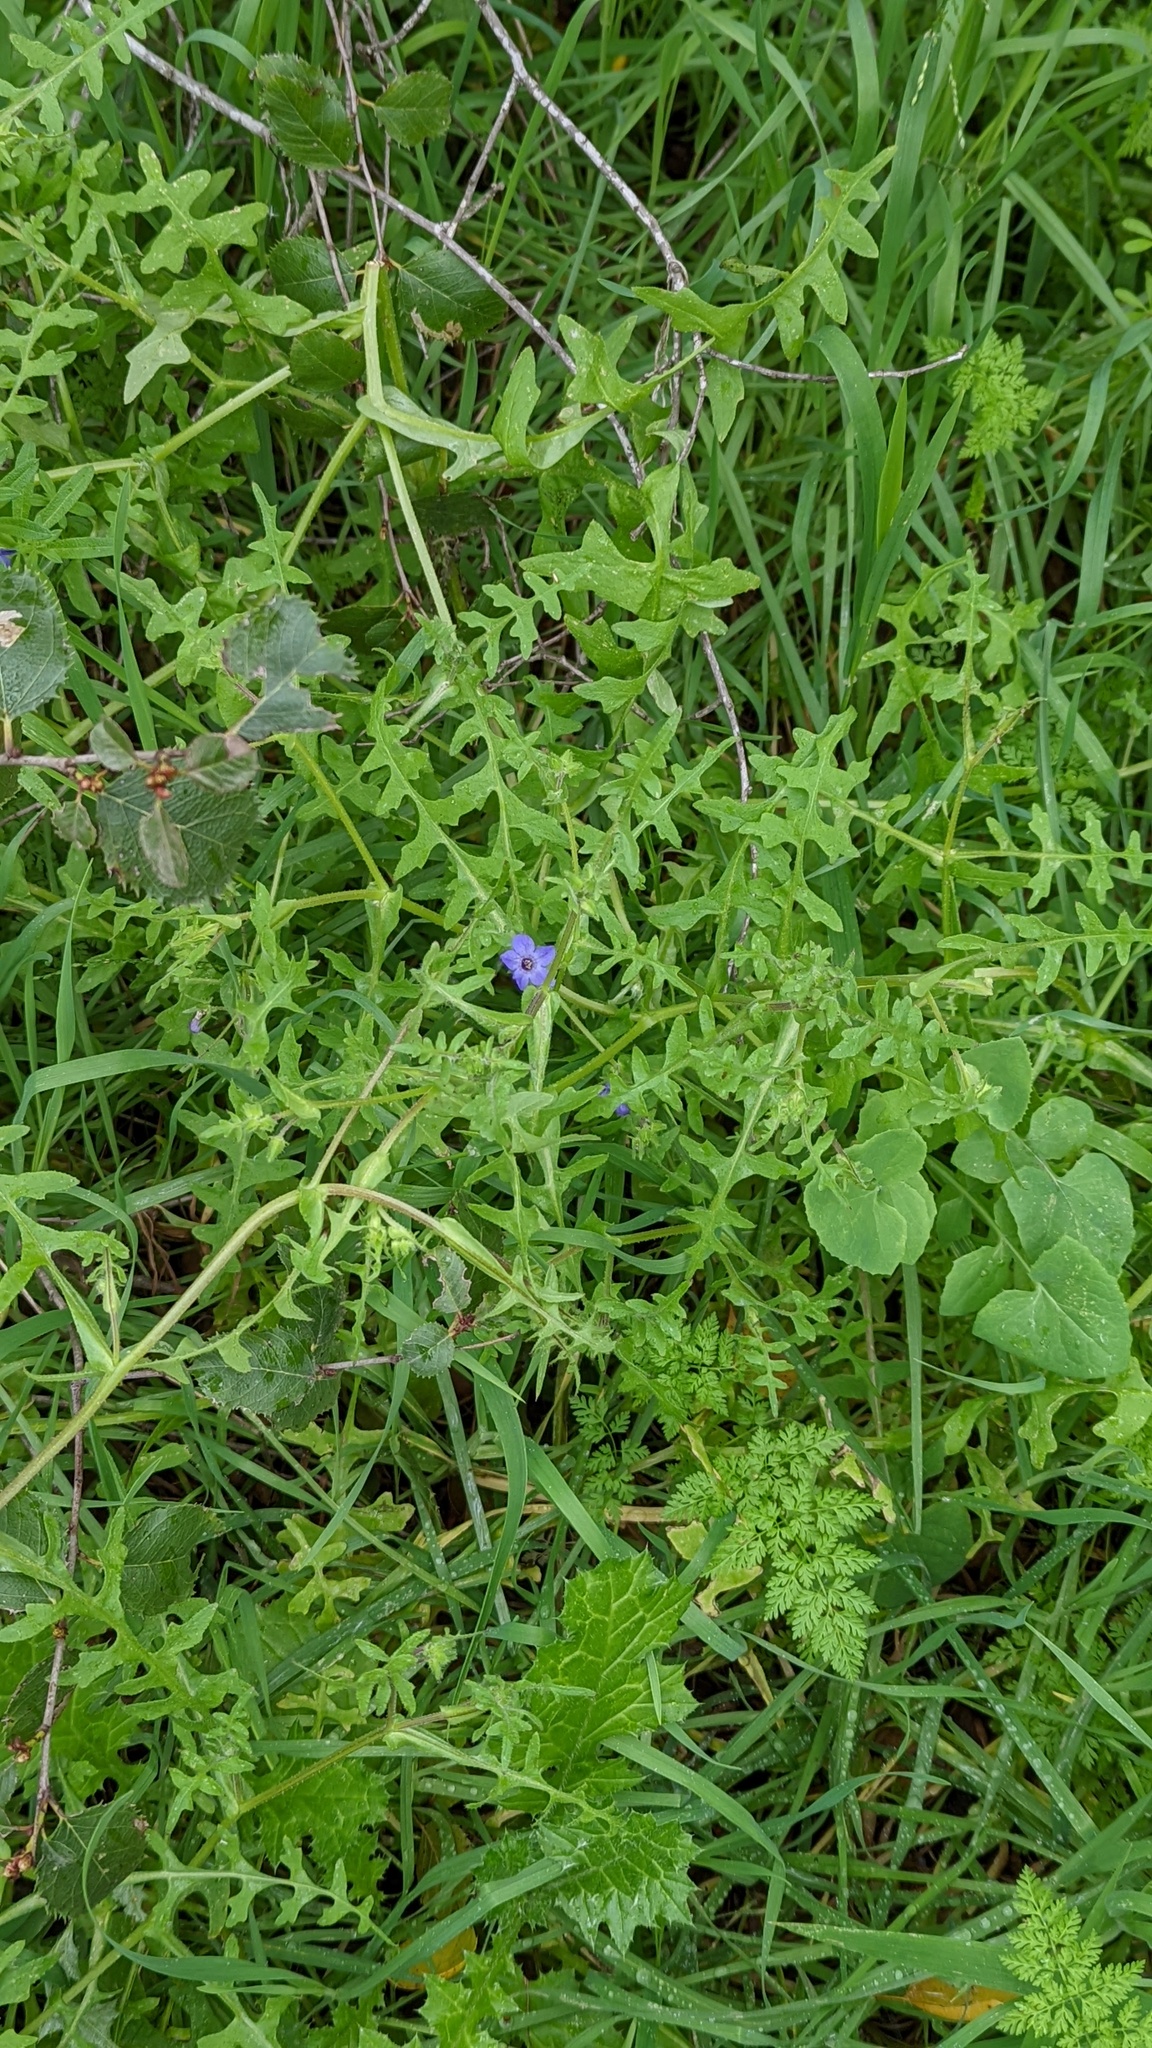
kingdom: Plantae
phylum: Tracheophyta
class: Magnoliopsida
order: Boraginales
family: Hydrophyllaceae
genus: Pholistoma
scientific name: Pholistoma auritum
